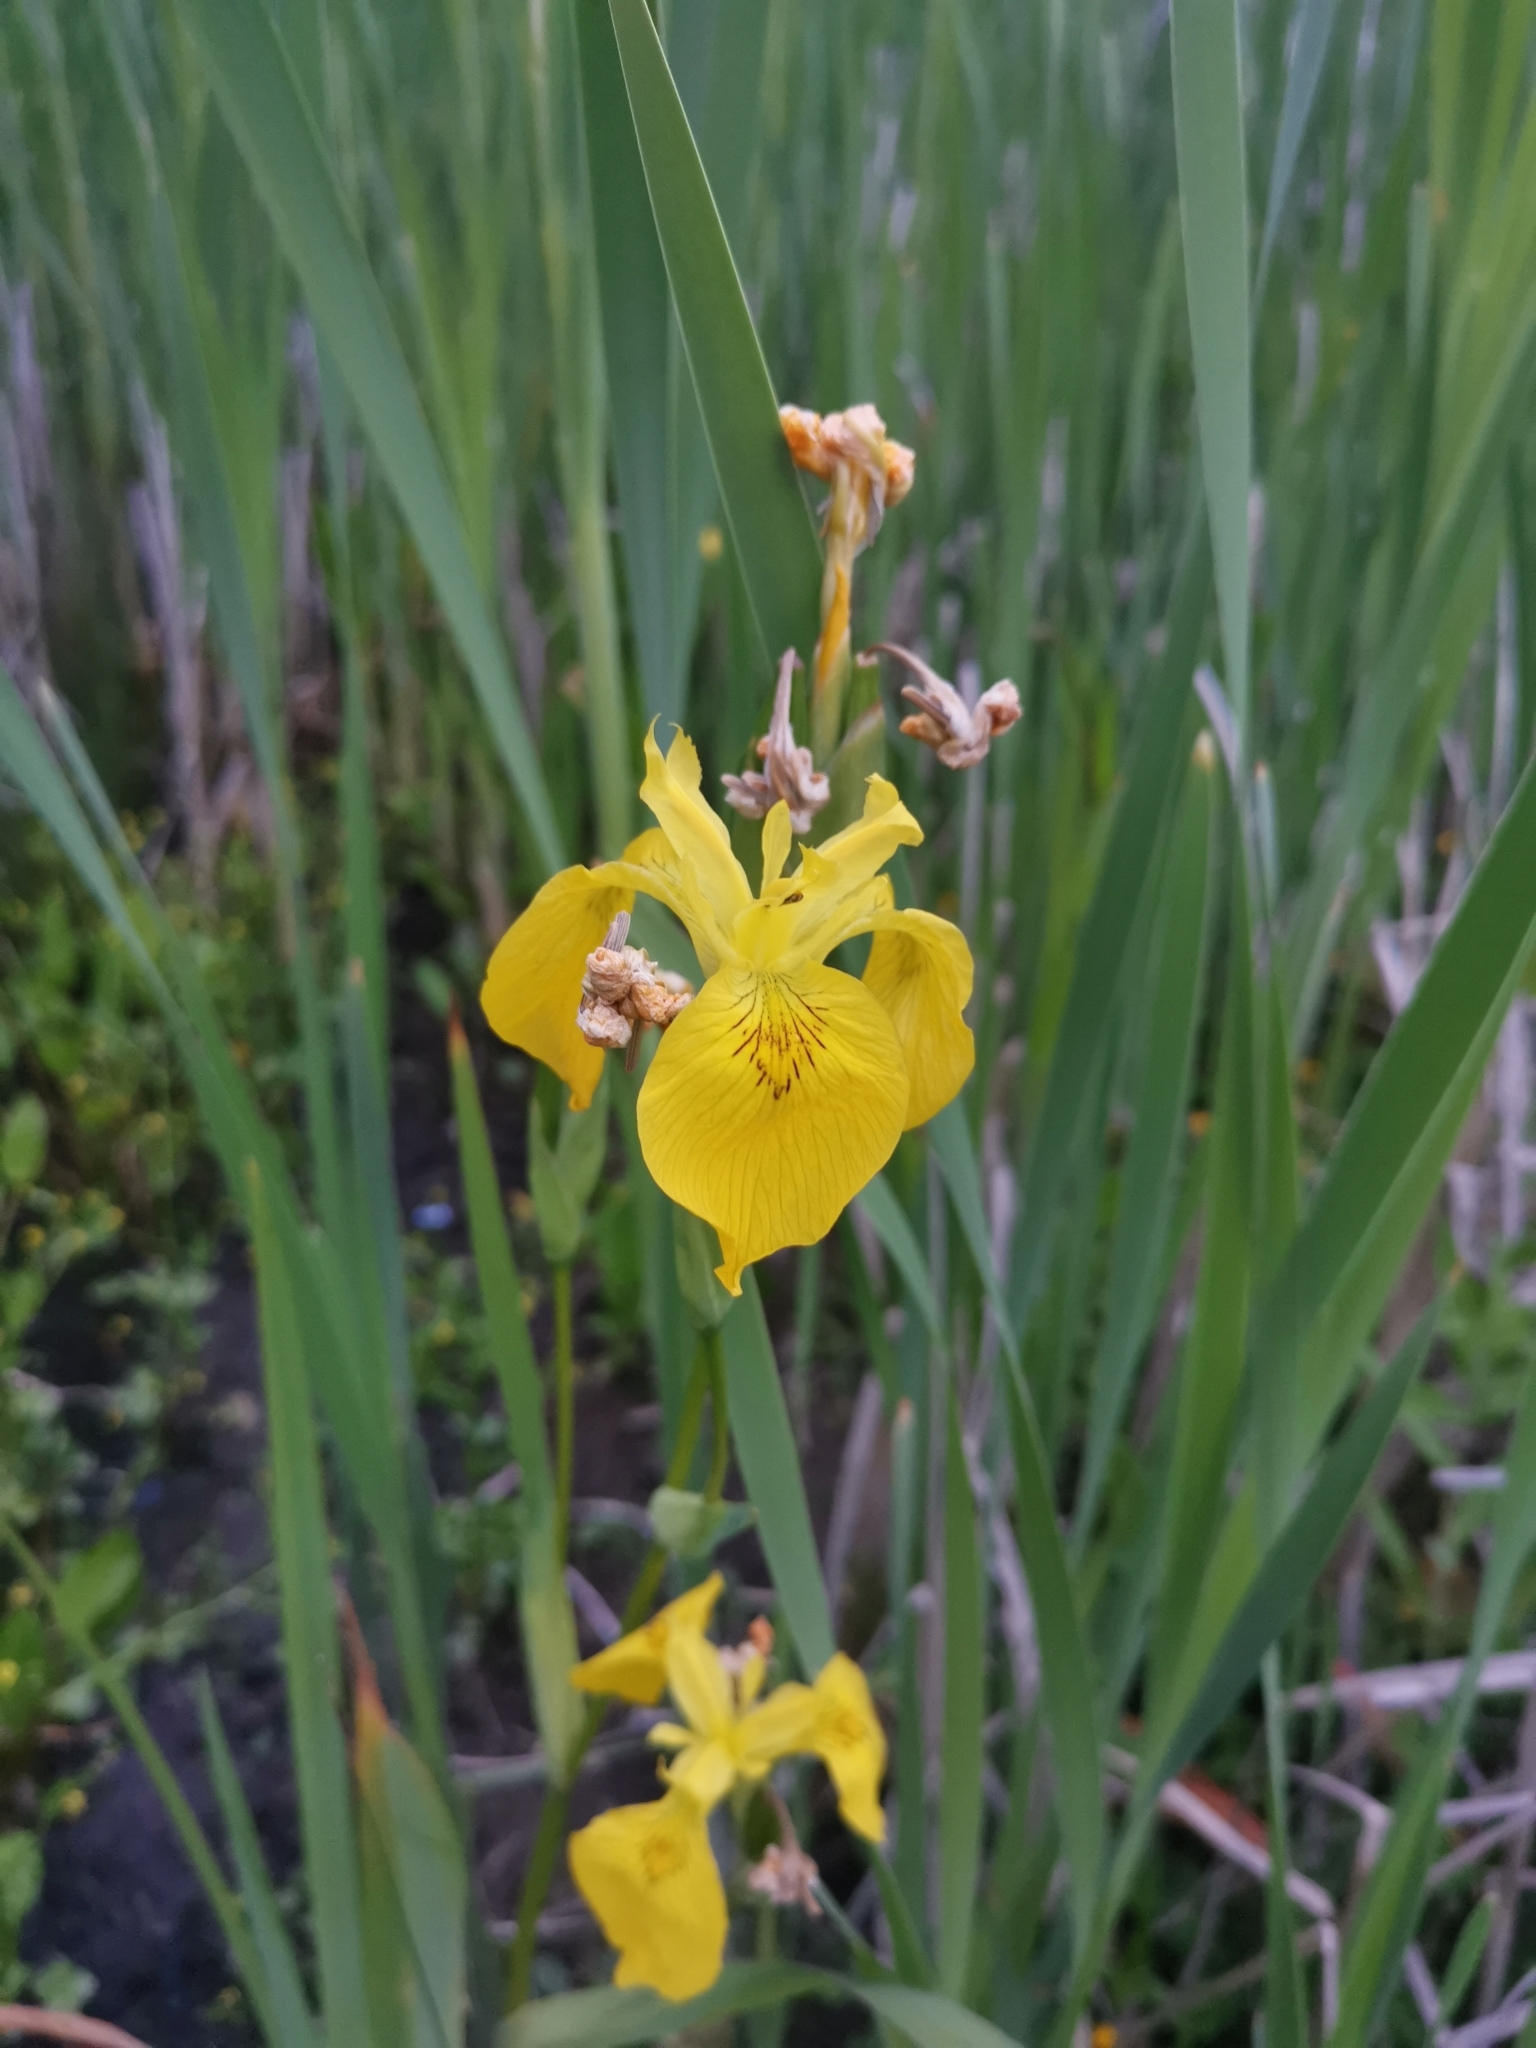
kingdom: Plantae
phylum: Tracheophyta
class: Liliopsida
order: Asparagales
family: Iridaceae
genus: Iris
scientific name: Iris pseudacorus
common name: Yellow flag
